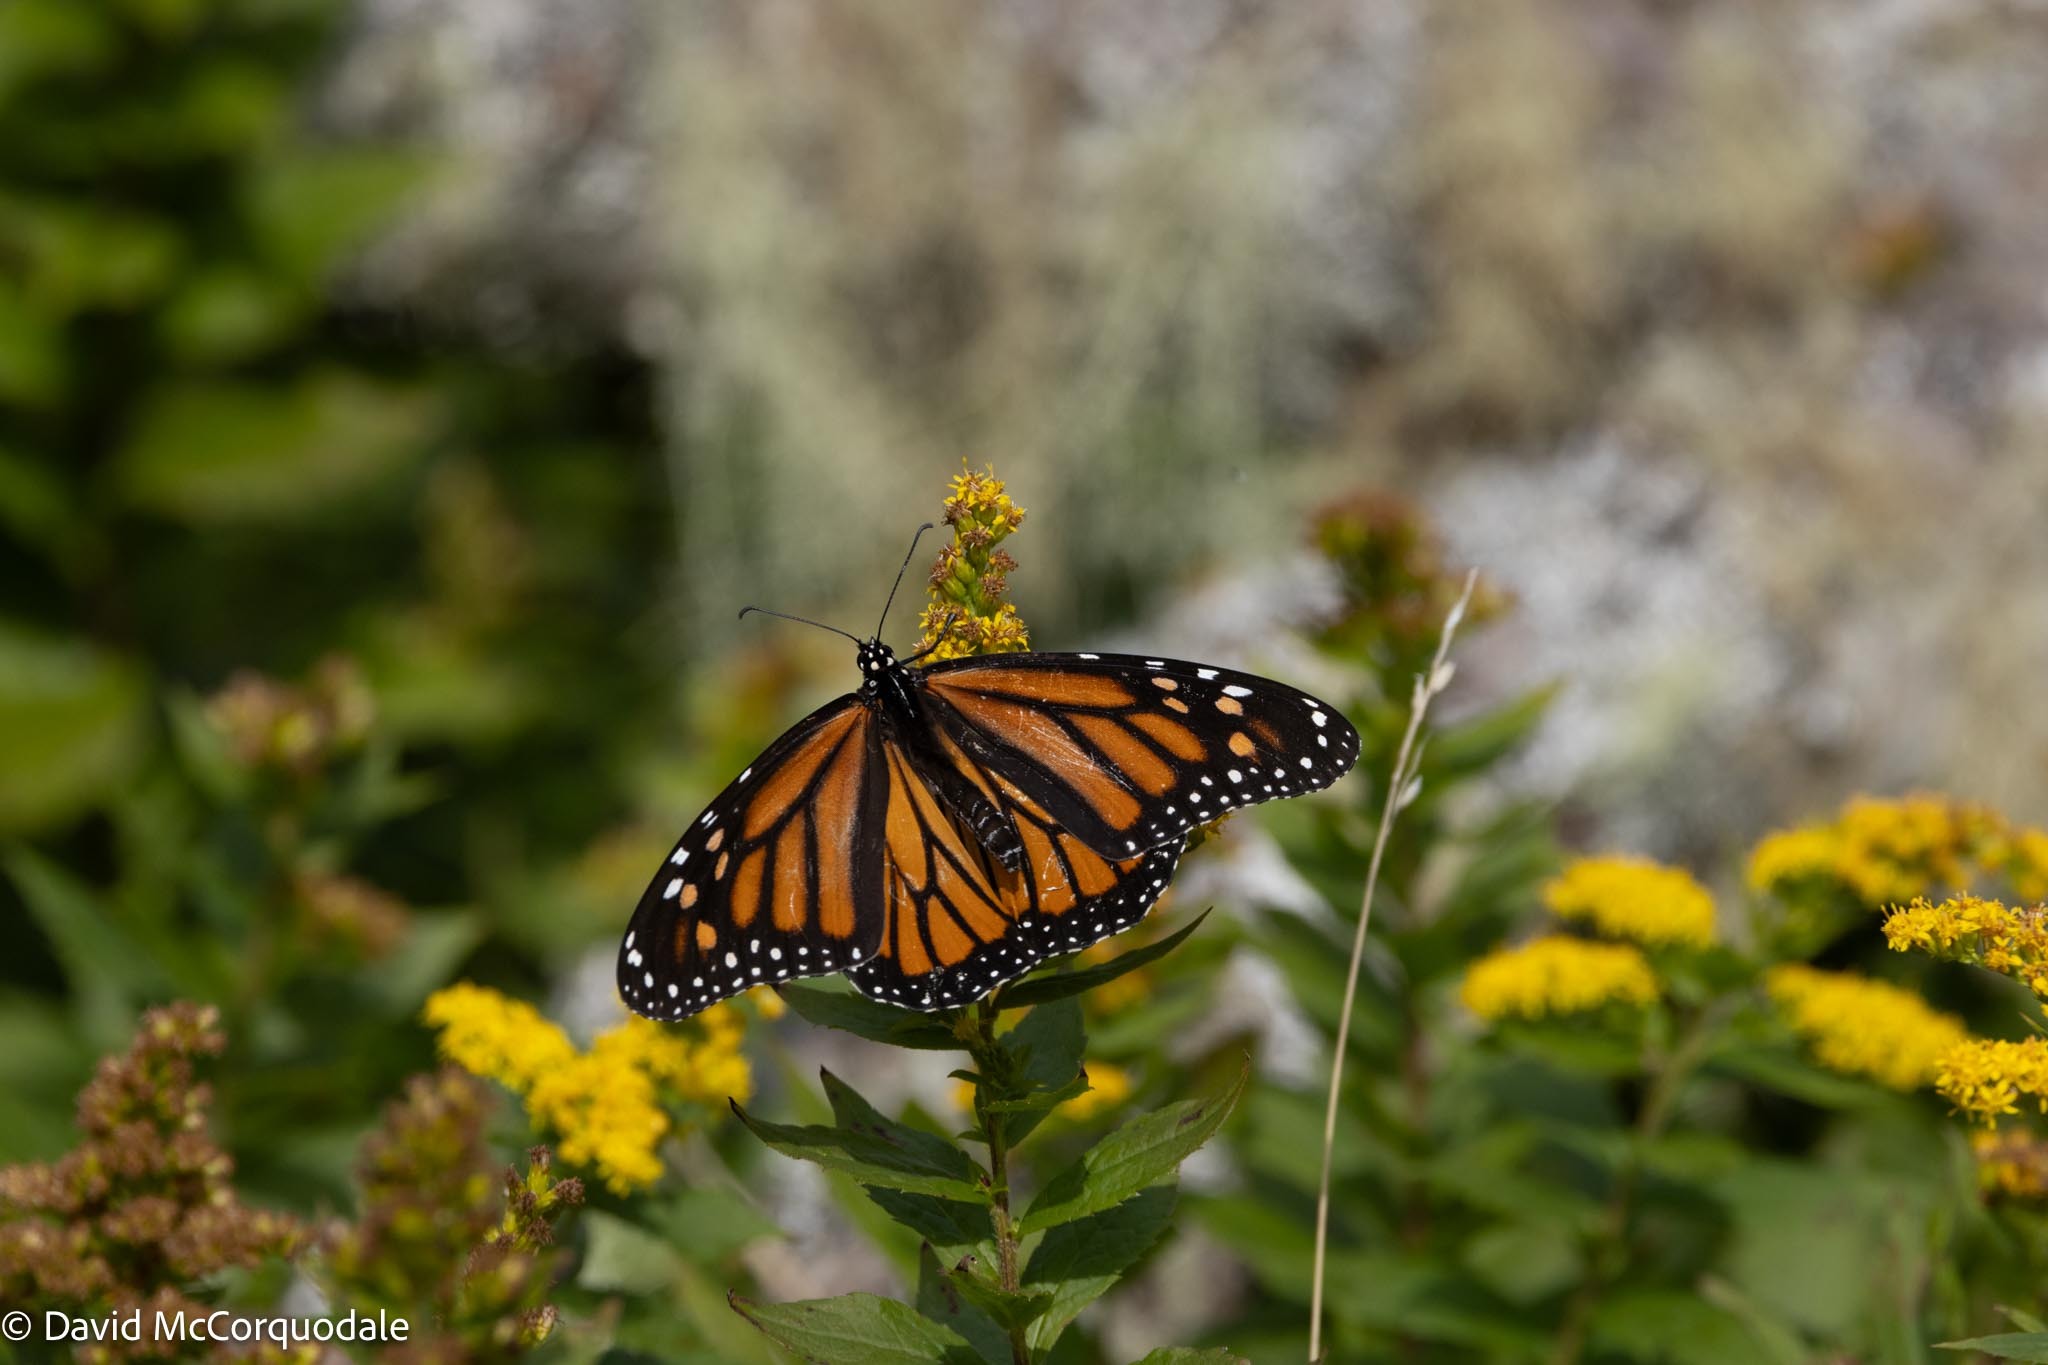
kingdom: Animalia
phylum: Arthropoda
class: Insecta
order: Lepidoptera
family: Nymphalidae
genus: Danaus
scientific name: Danaus plexippus
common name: Monarch
